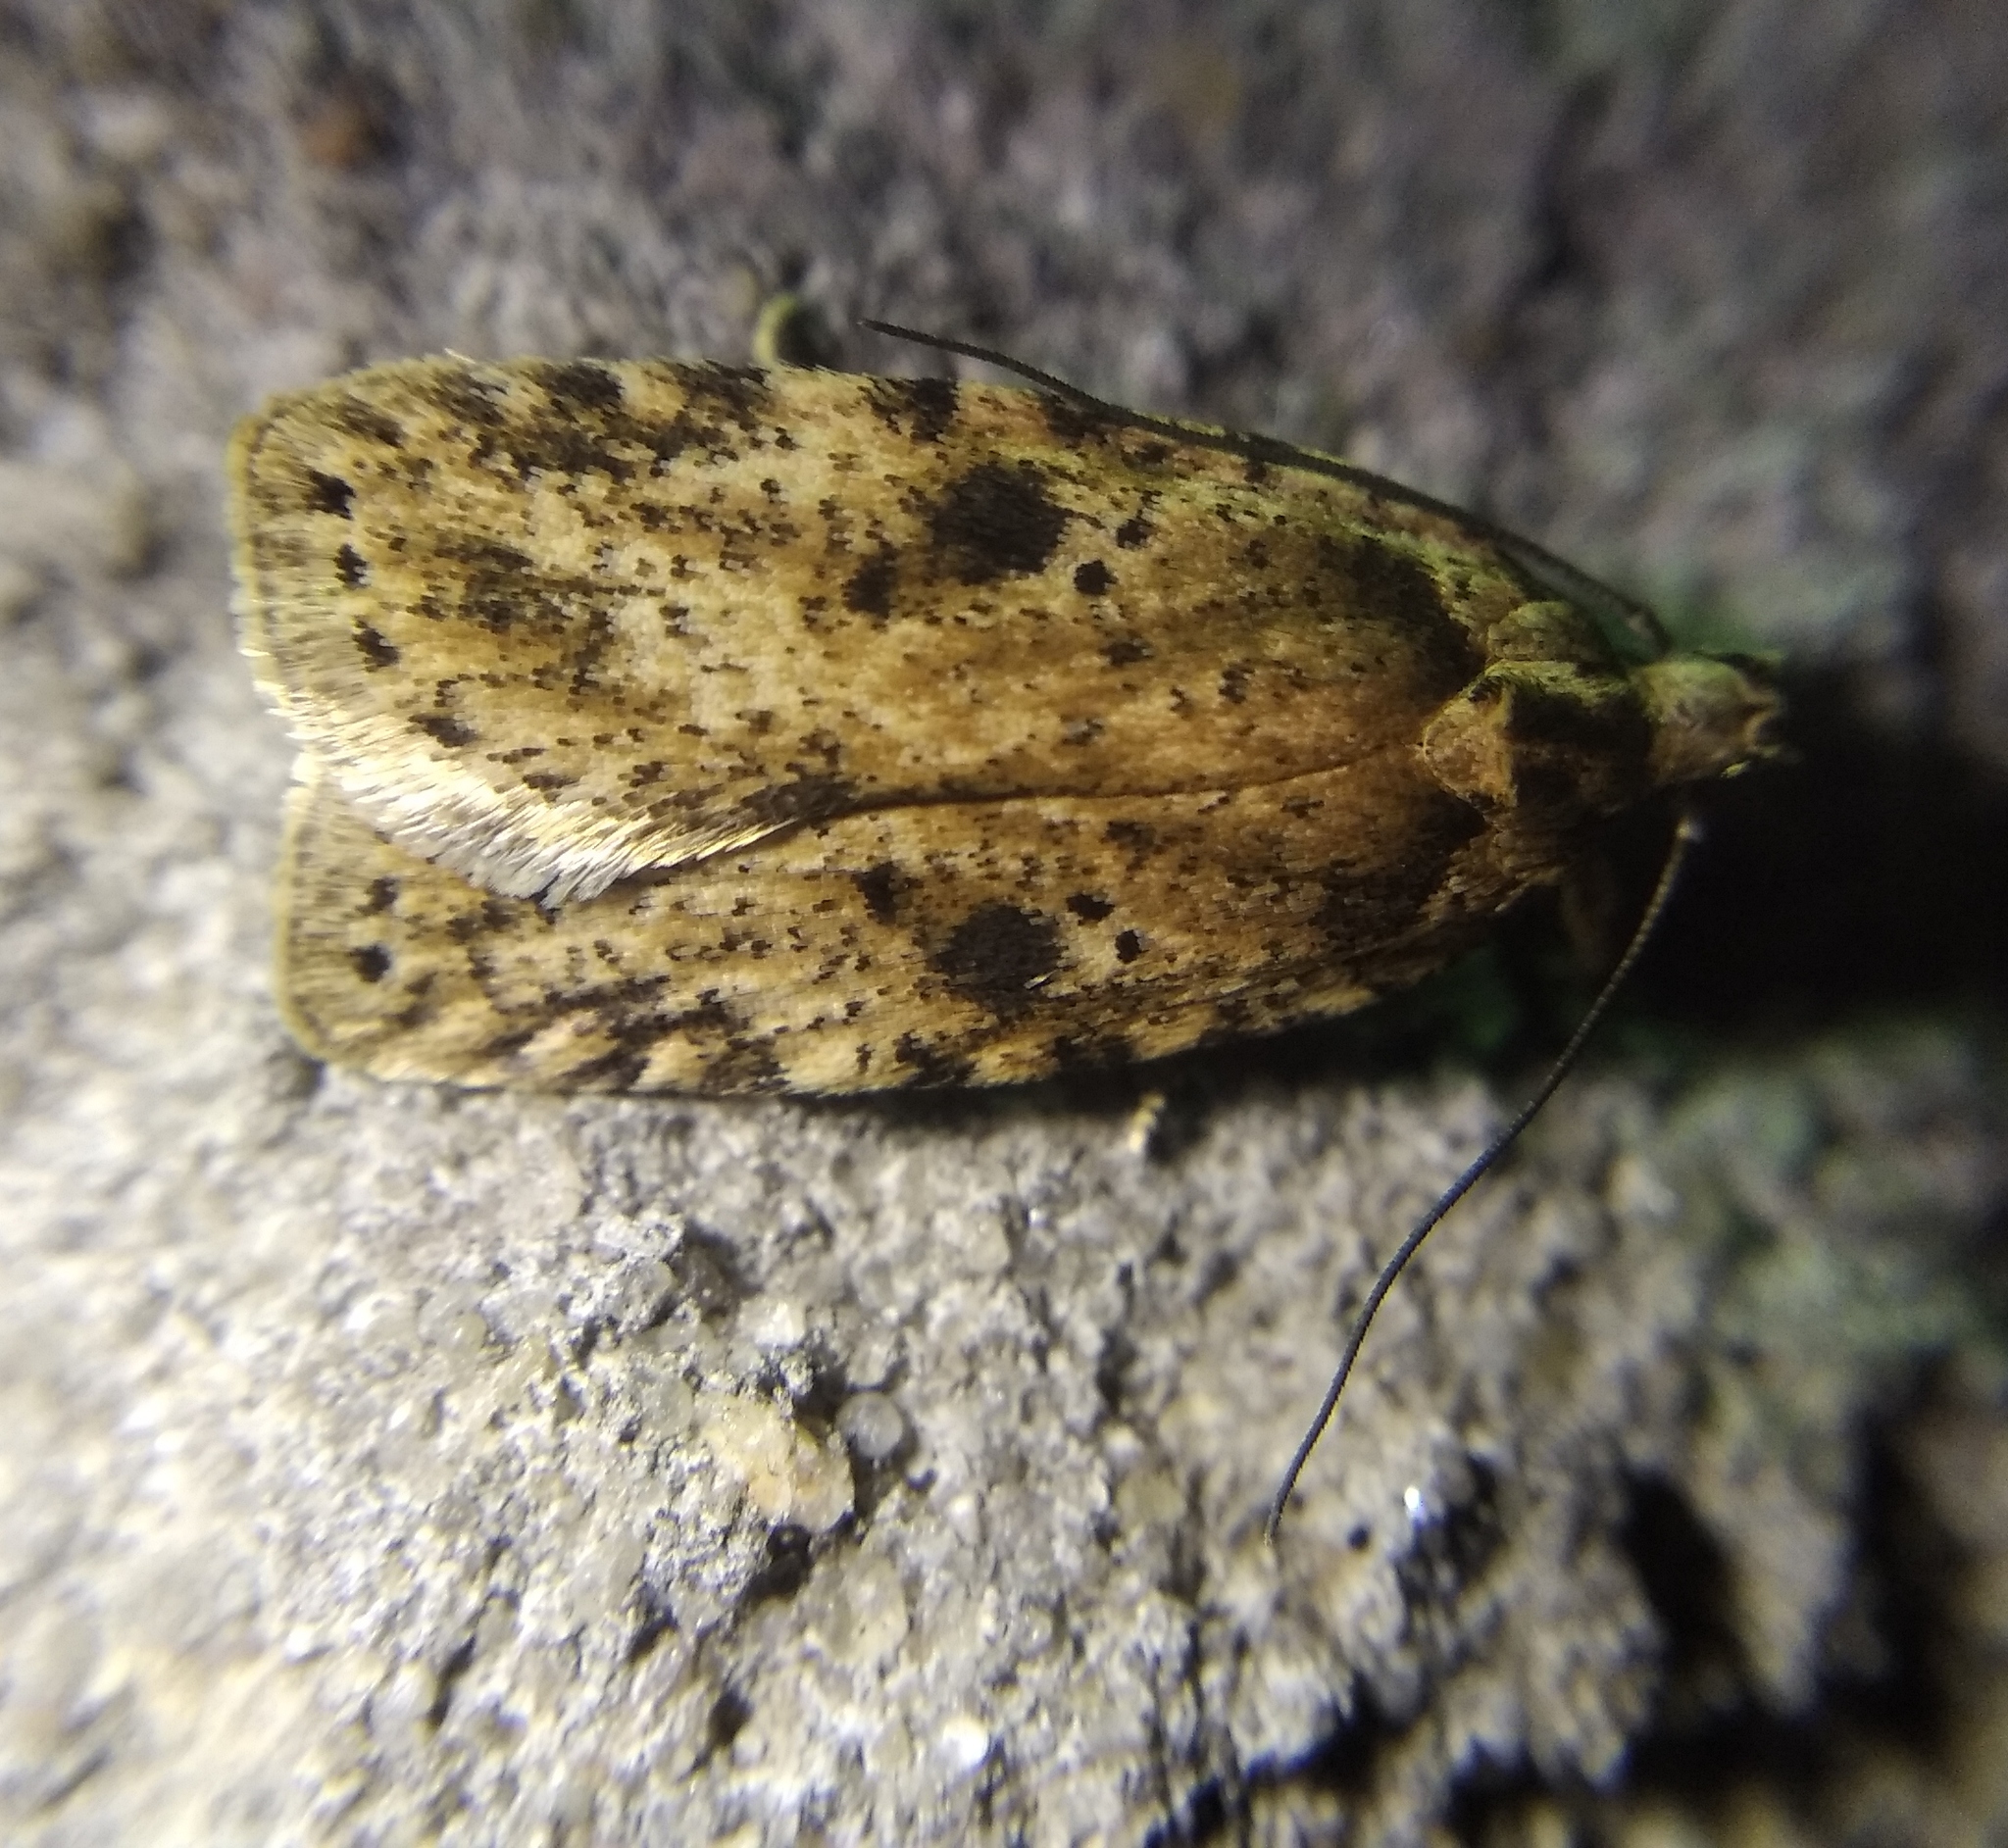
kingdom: Animalia
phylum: Arthropoda
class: Insecta
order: Lepidoptera
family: Depressariidae
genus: Agonopterix
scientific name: Agonopterix arenella
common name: Brindled flat-body
